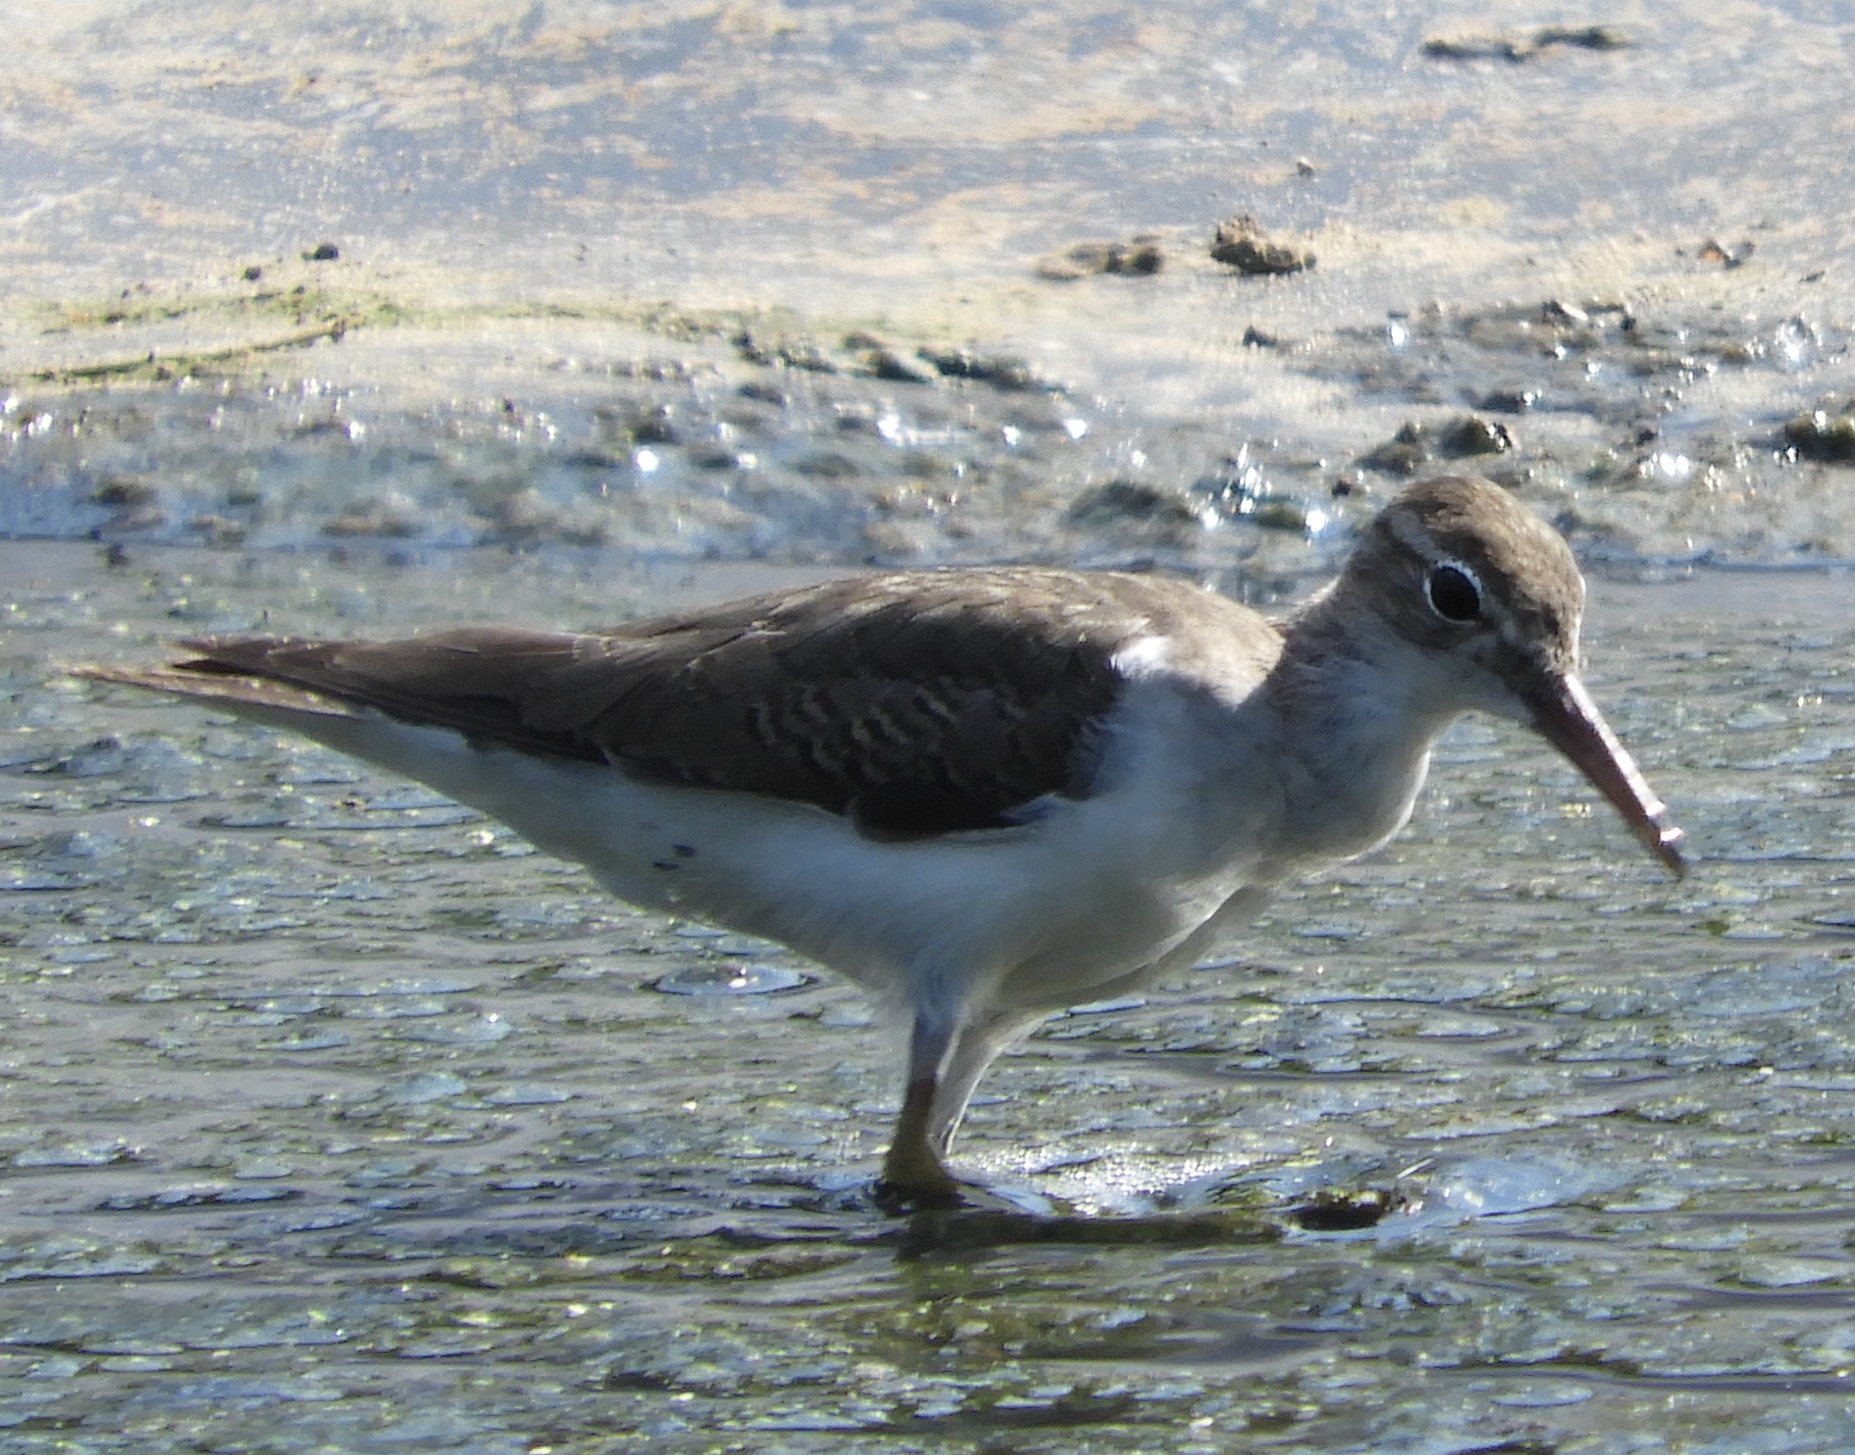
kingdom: Animalia
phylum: Chordata
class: Aves
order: Charadriiformes
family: Scolopacidae
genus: Actitis
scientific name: Actitis macularius
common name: Spotted sandpiper
